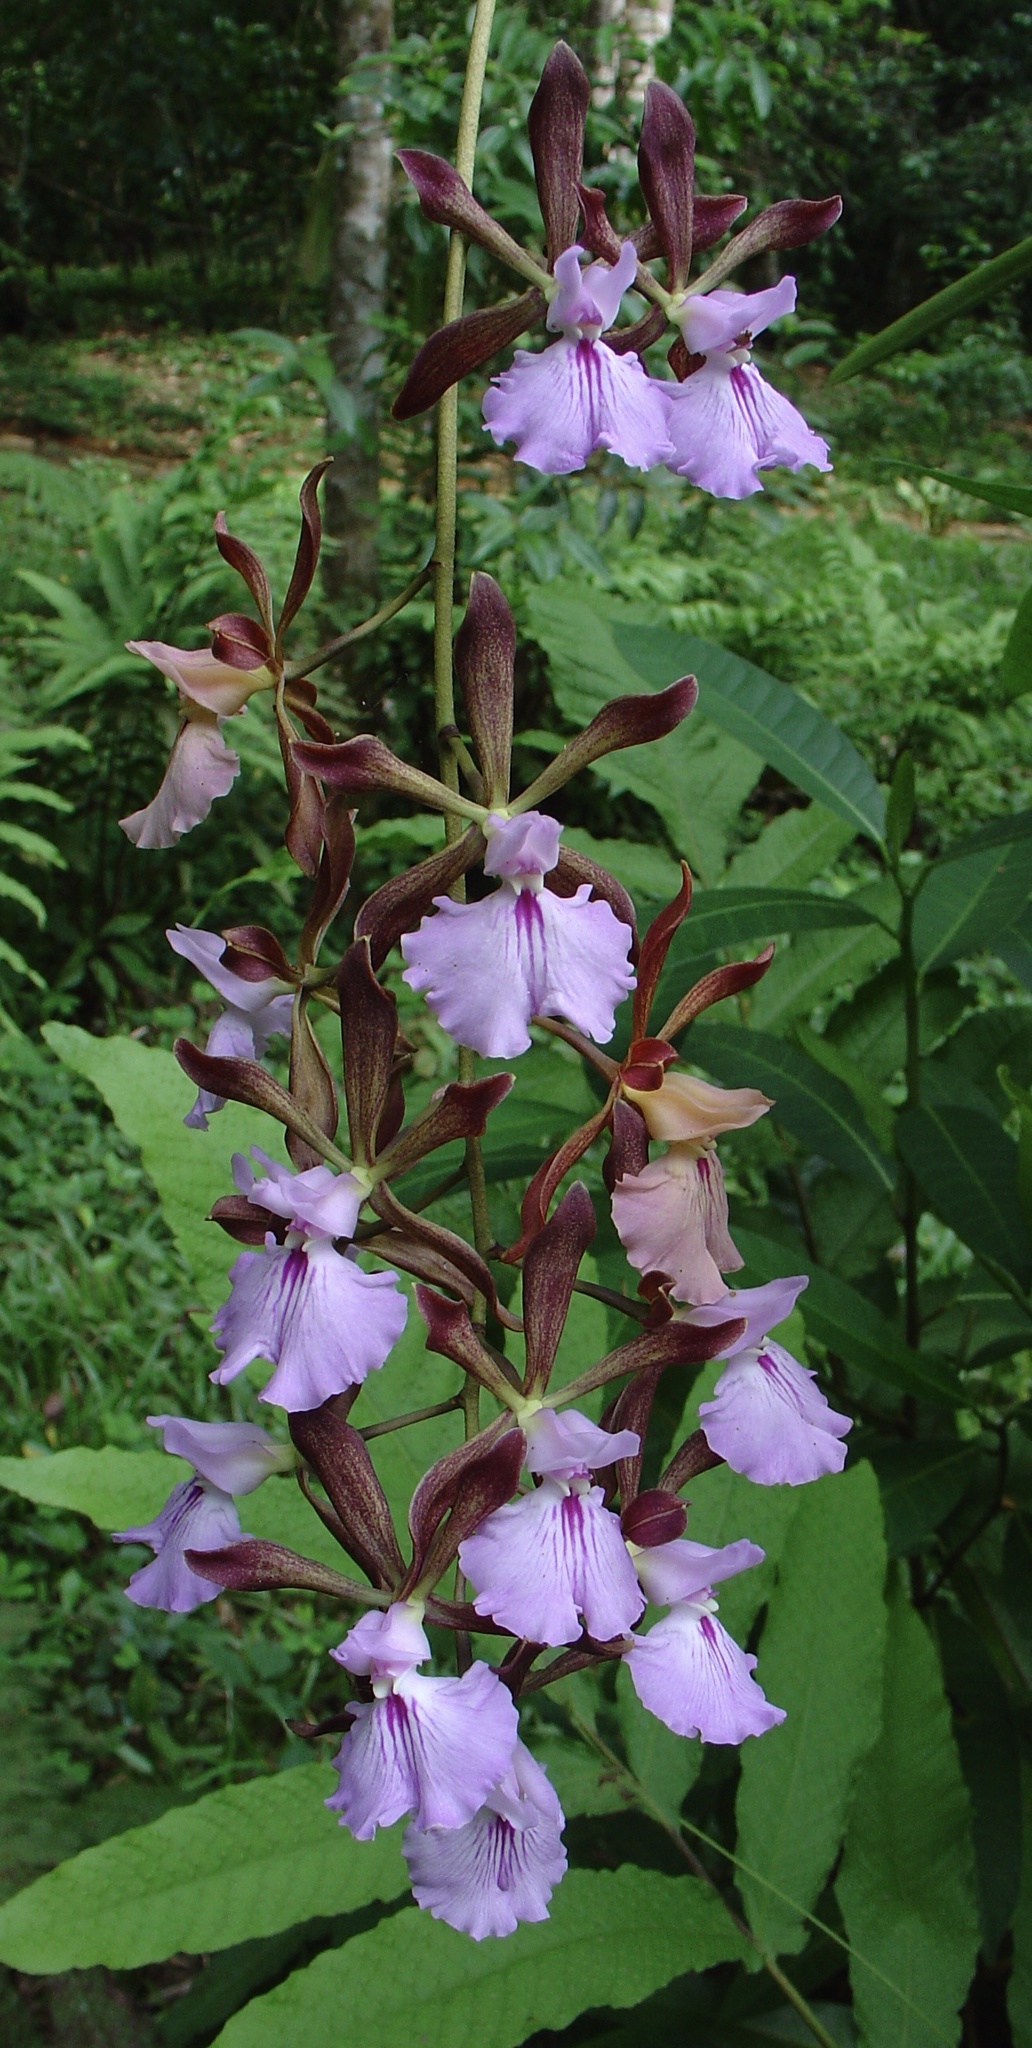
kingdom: Plantae
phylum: Tracheophyta
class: Liliopsida
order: Asparagales
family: Orchidaceae
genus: Encyclia
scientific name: Encyclia phoenicea
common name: Chocolate orchid
